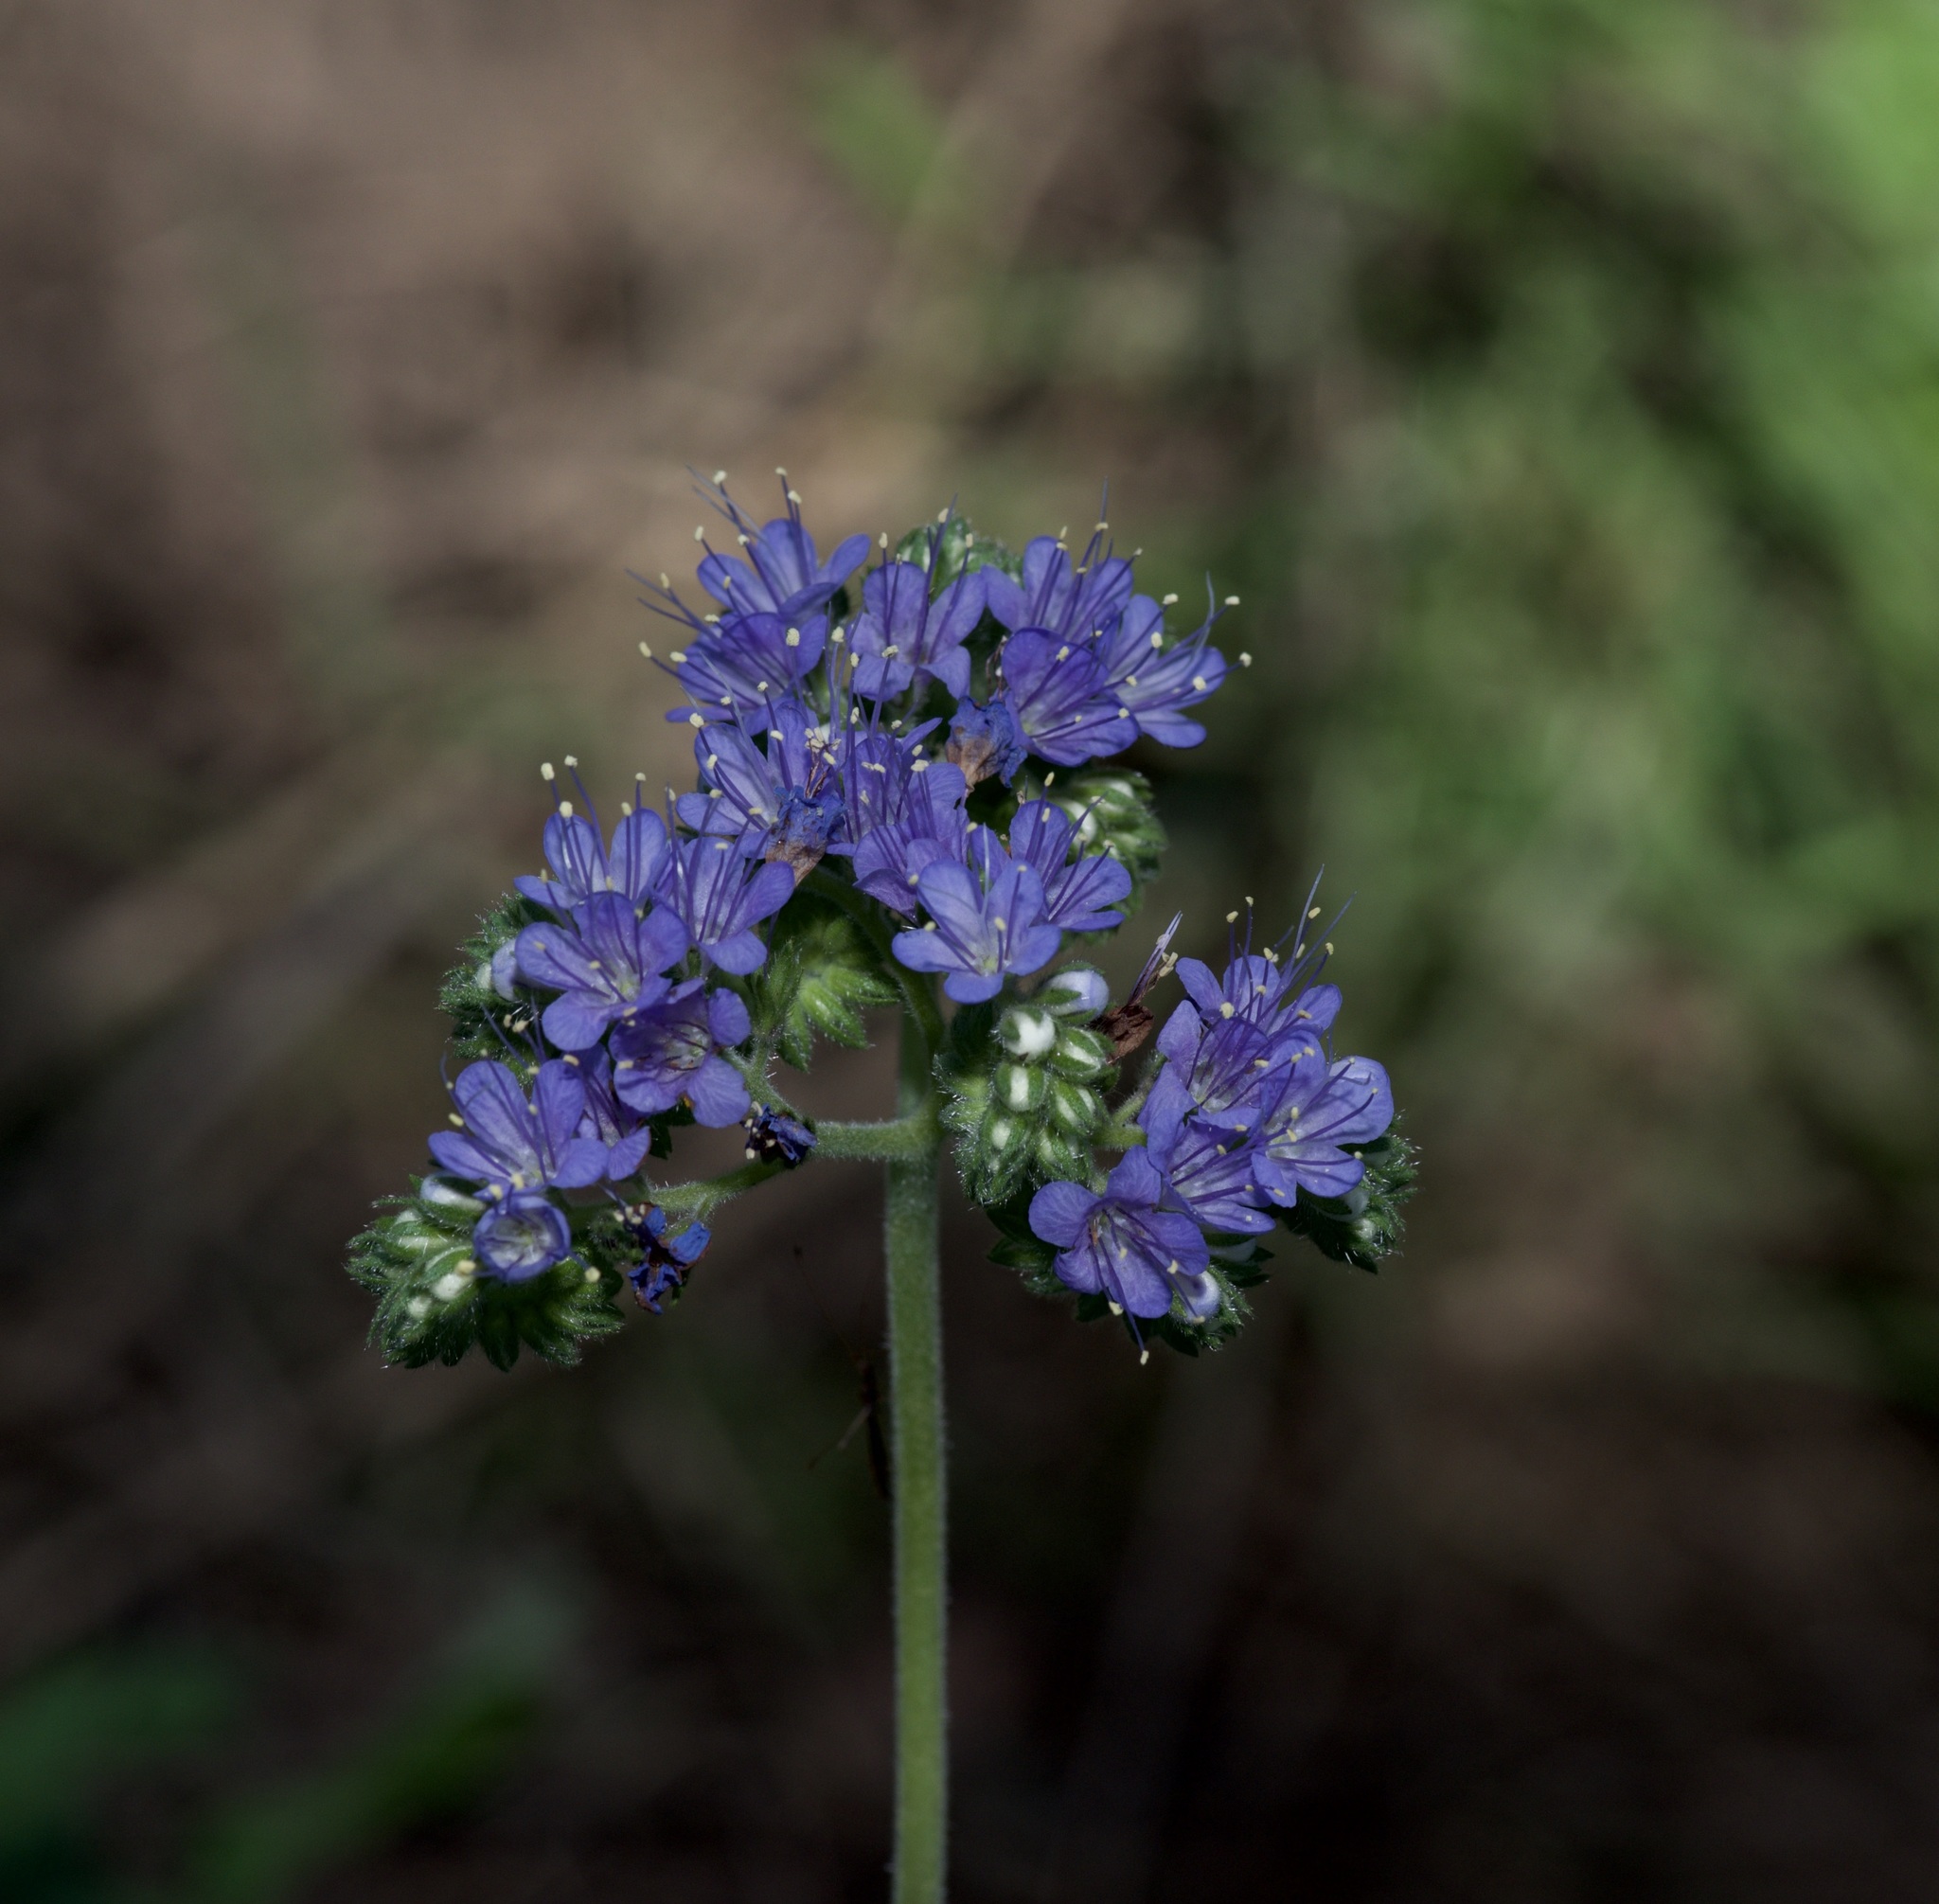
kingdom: Plantae
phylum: Tracheophyta
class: Magnoliopsida
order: Boraginales
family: Hydrophyllaceae
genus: Phacelia
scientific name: Phacelia congesta
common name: Blue curls
